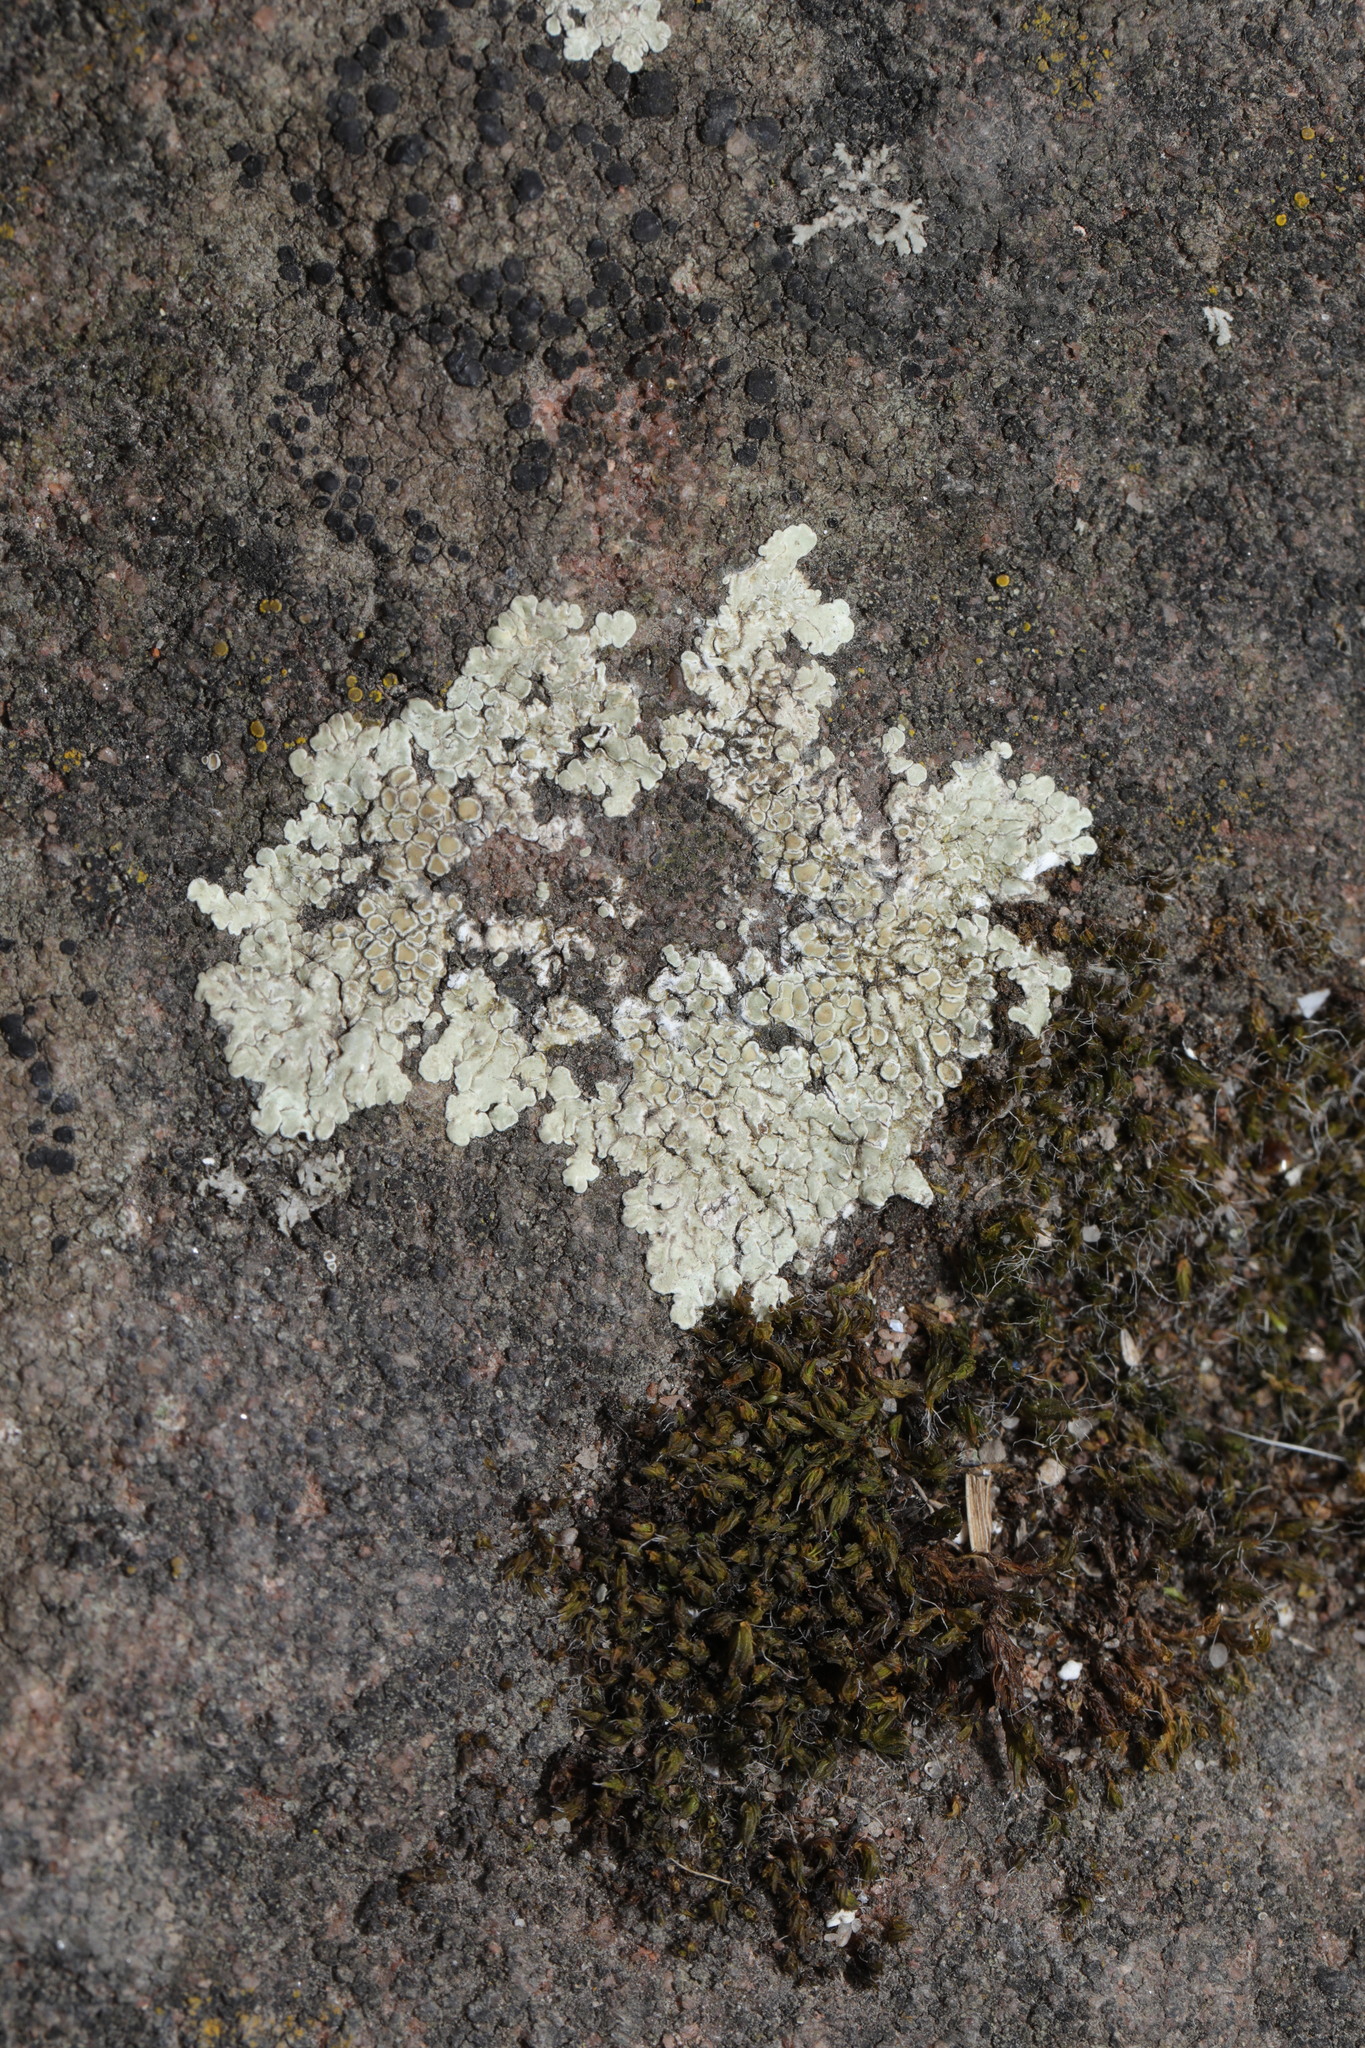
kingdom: Fungi
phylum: Ascomycota
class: Lecanoromycetes
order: Lecanorales
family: Lecanoraceae
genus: Protoparmeliopsis
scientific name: Protoparmeliopsis muralis
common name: Stonewall rim lichen
